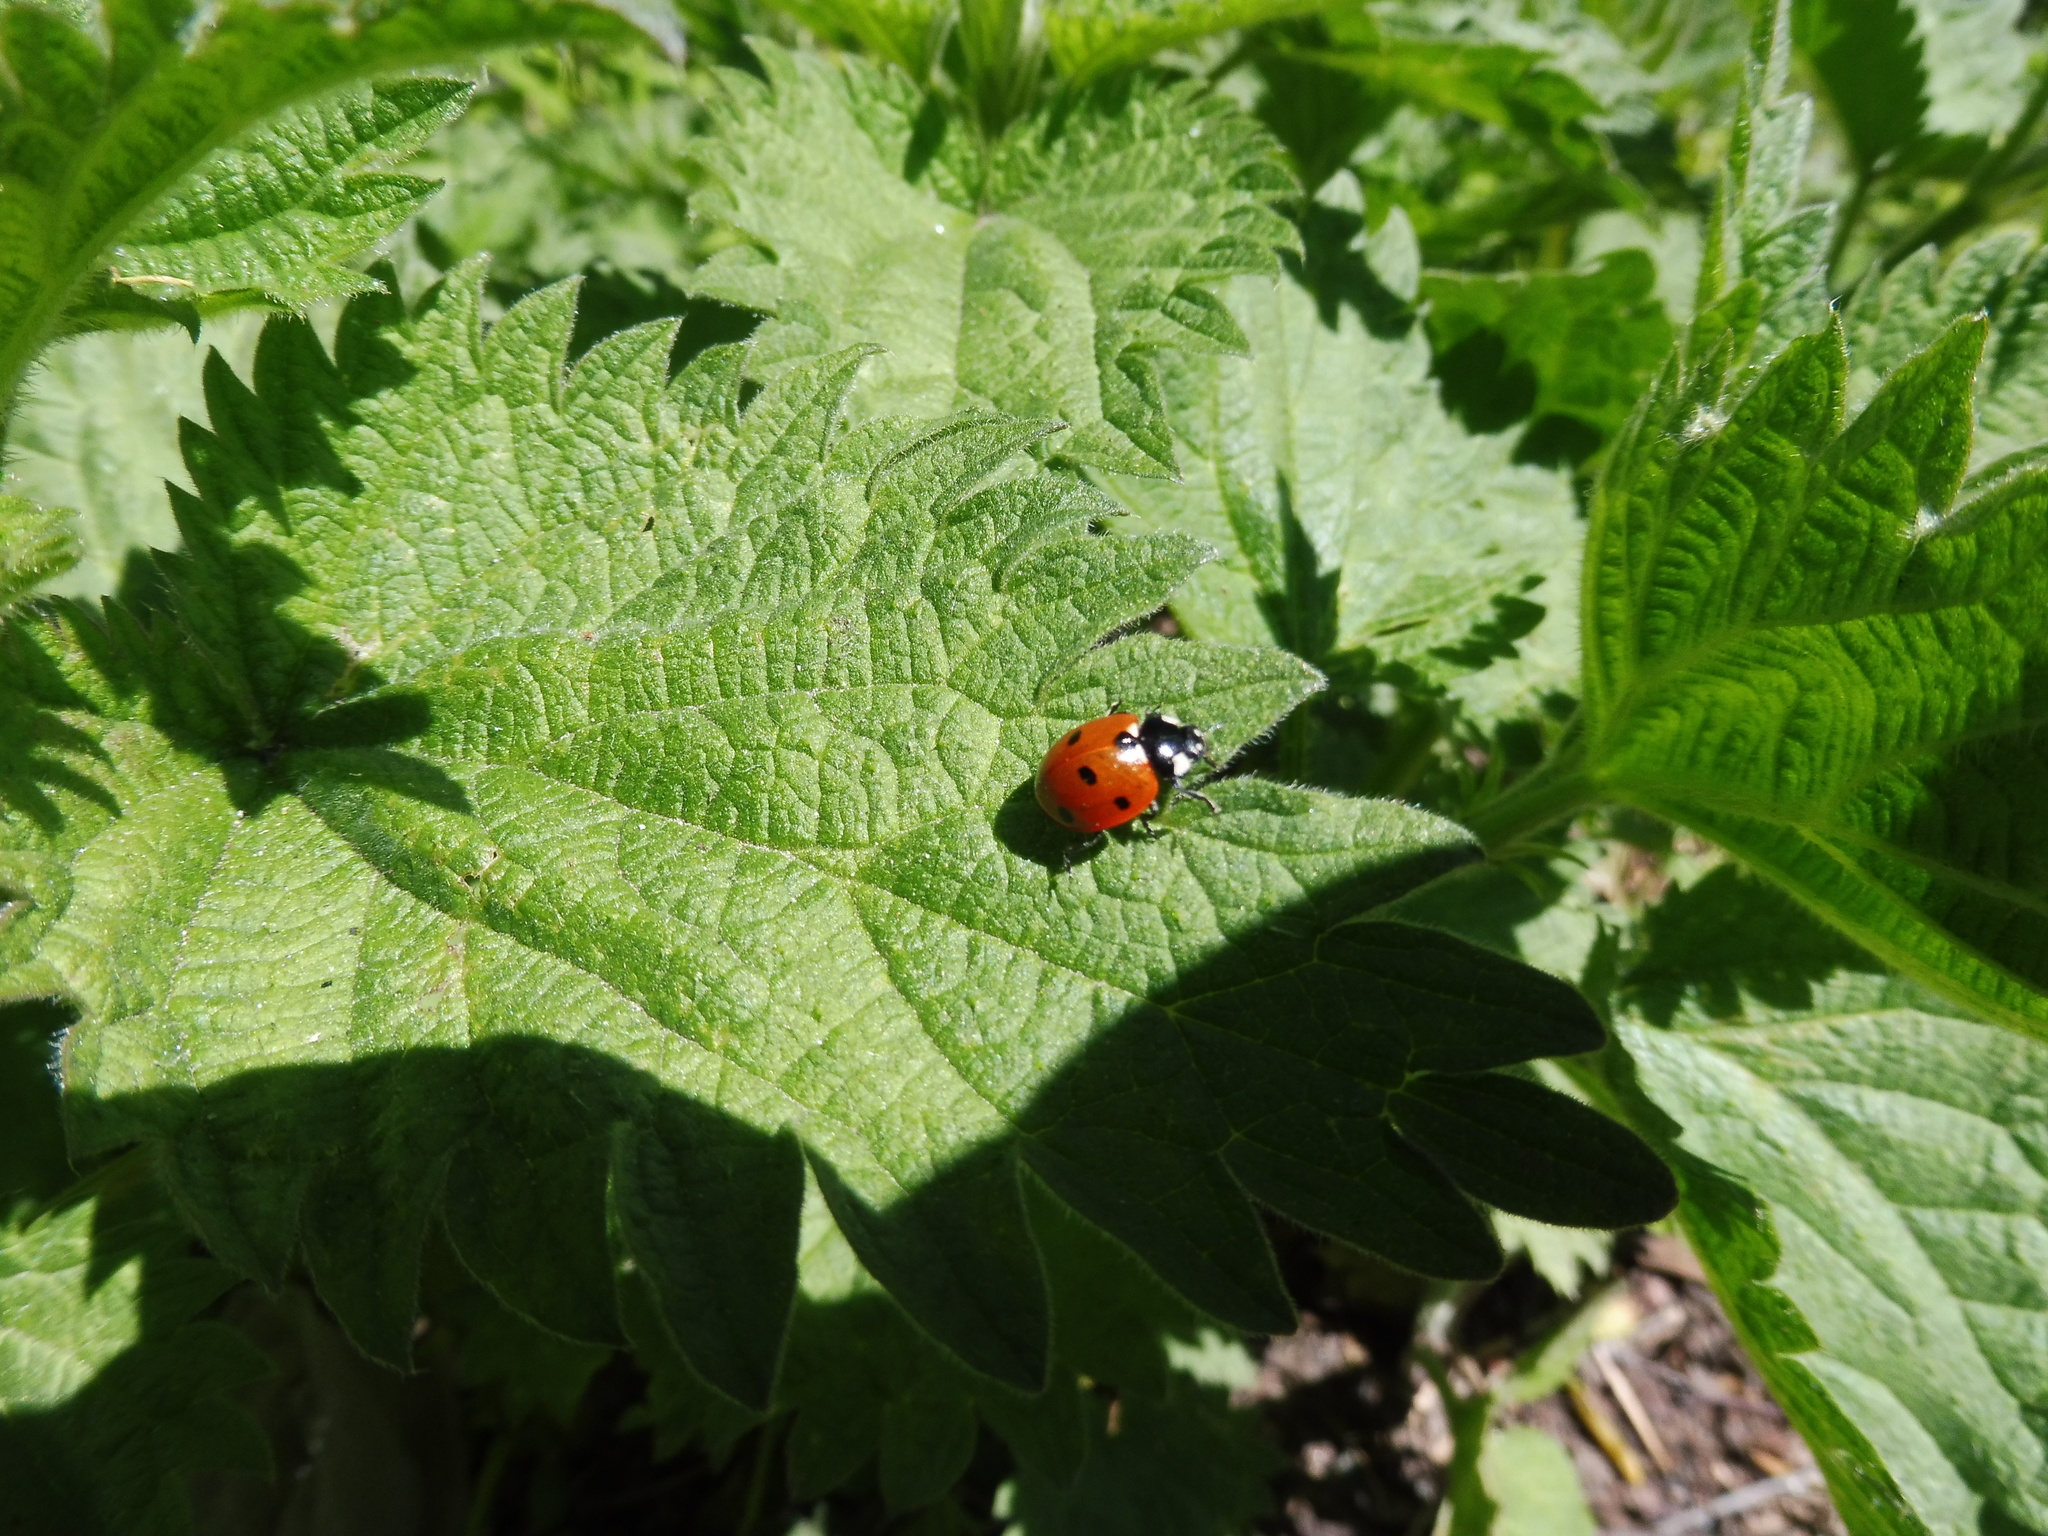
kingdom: Animalia
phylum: Arthropoda
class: Insecta
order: Coleoptera
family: Coccinellidae
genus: Coccinella
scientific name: Coccinella septempunctata
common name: Sevenspotted lady beetle
